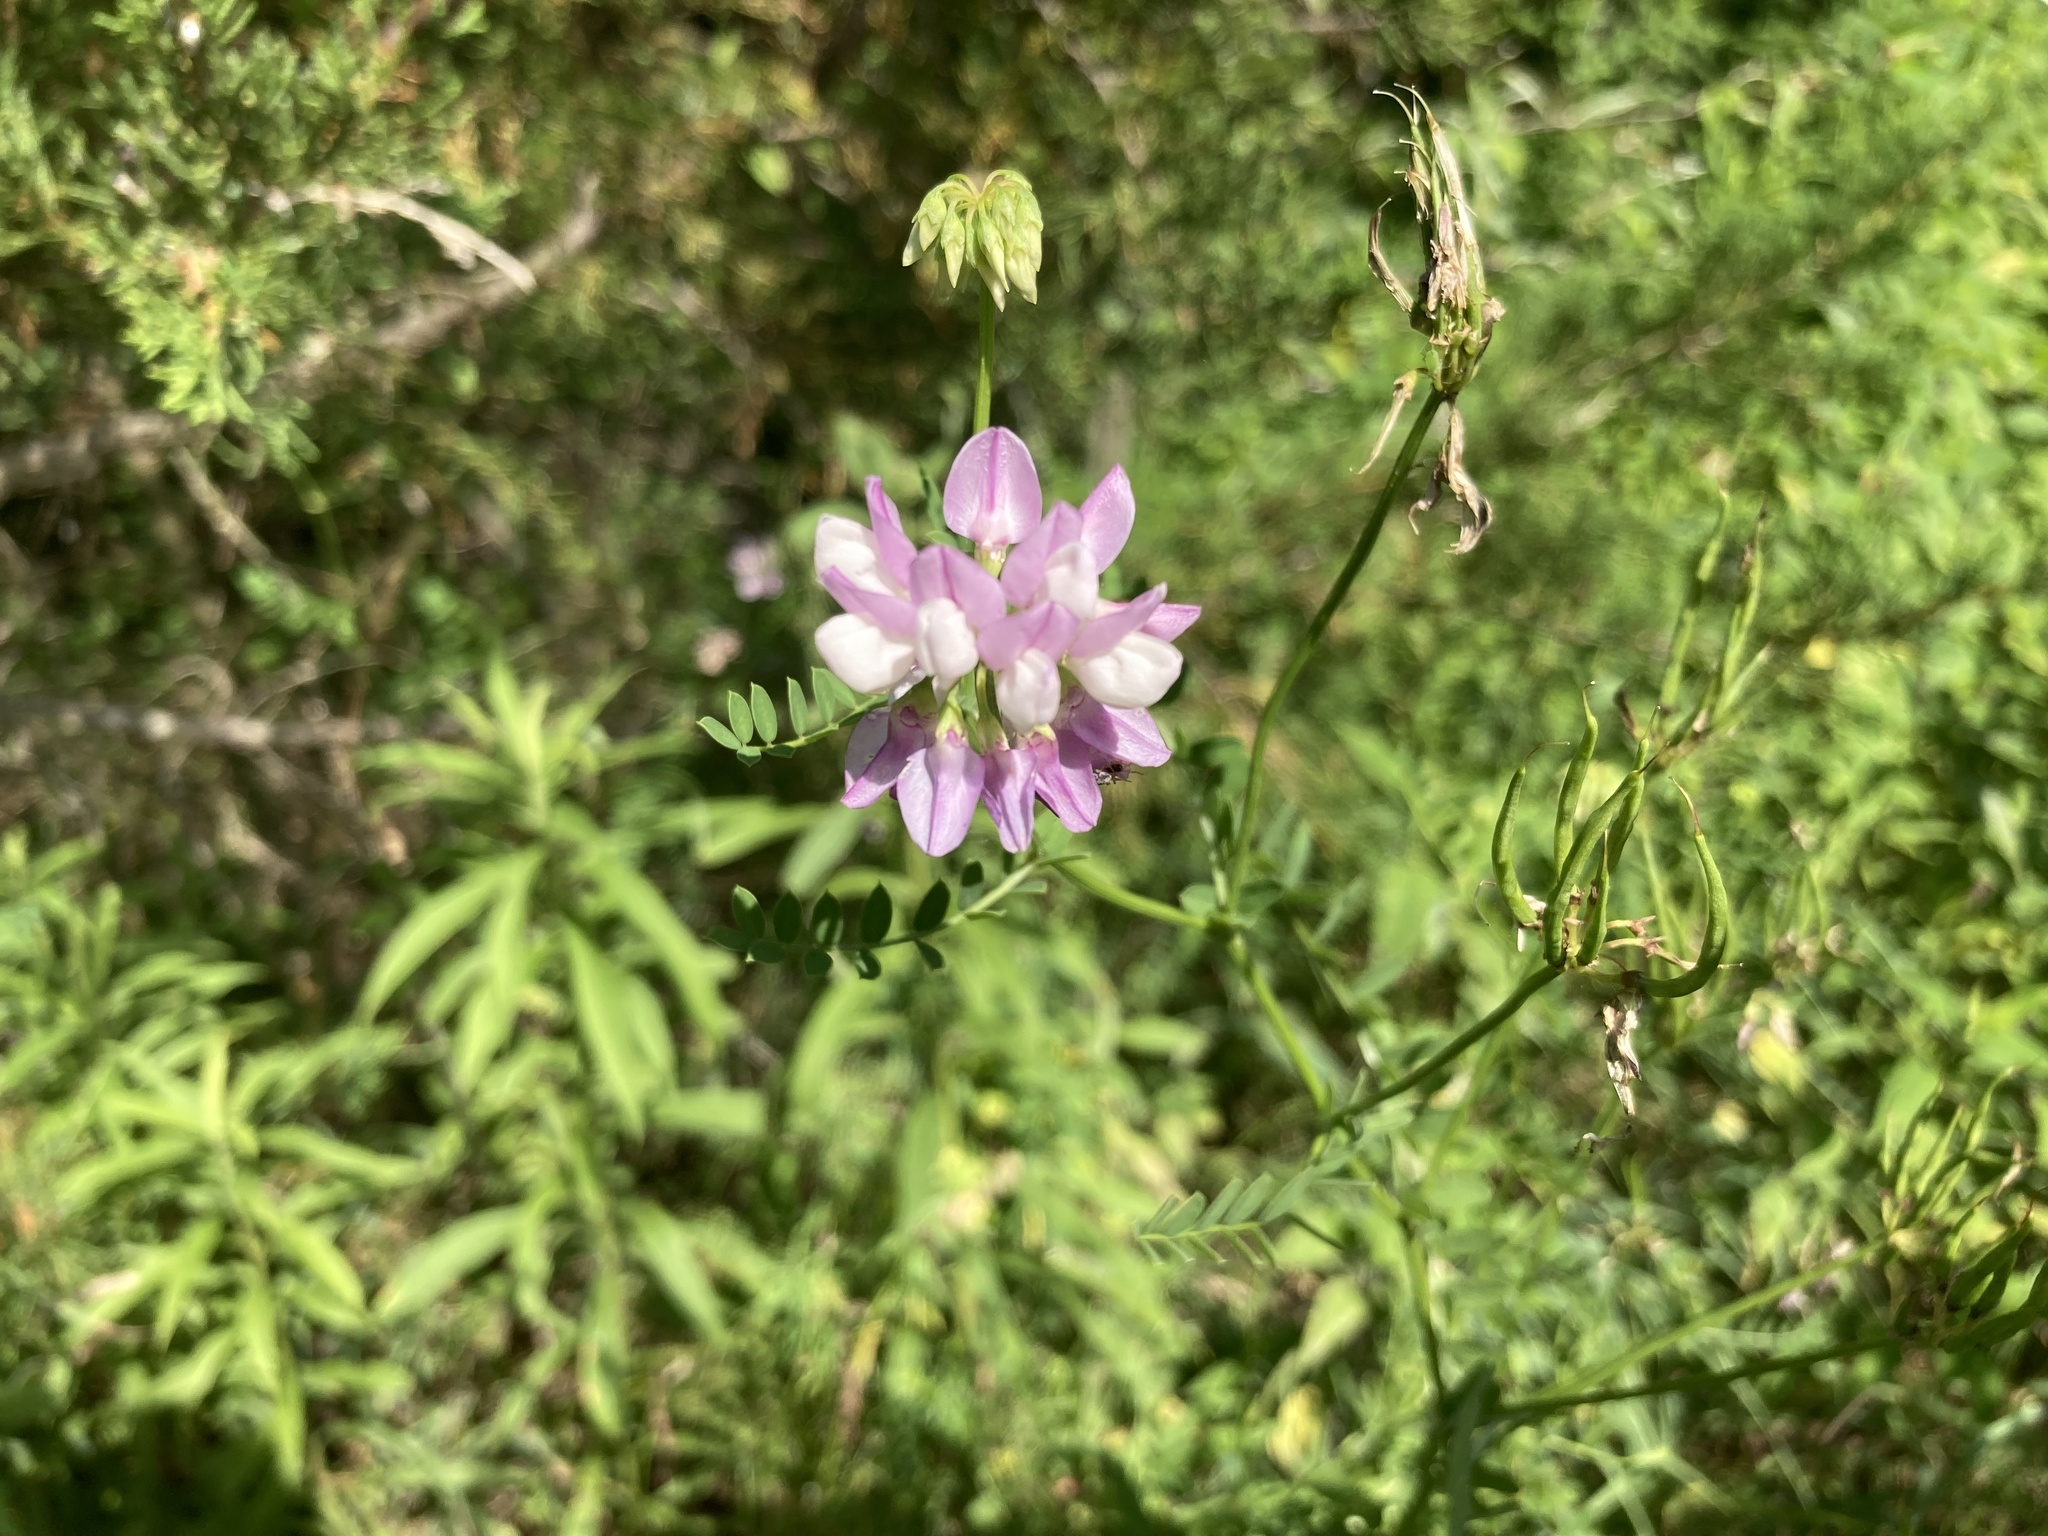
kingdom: Plantae
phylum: Tracheophyta
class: Magnoliopsida
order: Fabales
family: Fabaceae
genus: Coronilla
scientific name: Coronilla varia
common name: Crownvetch
